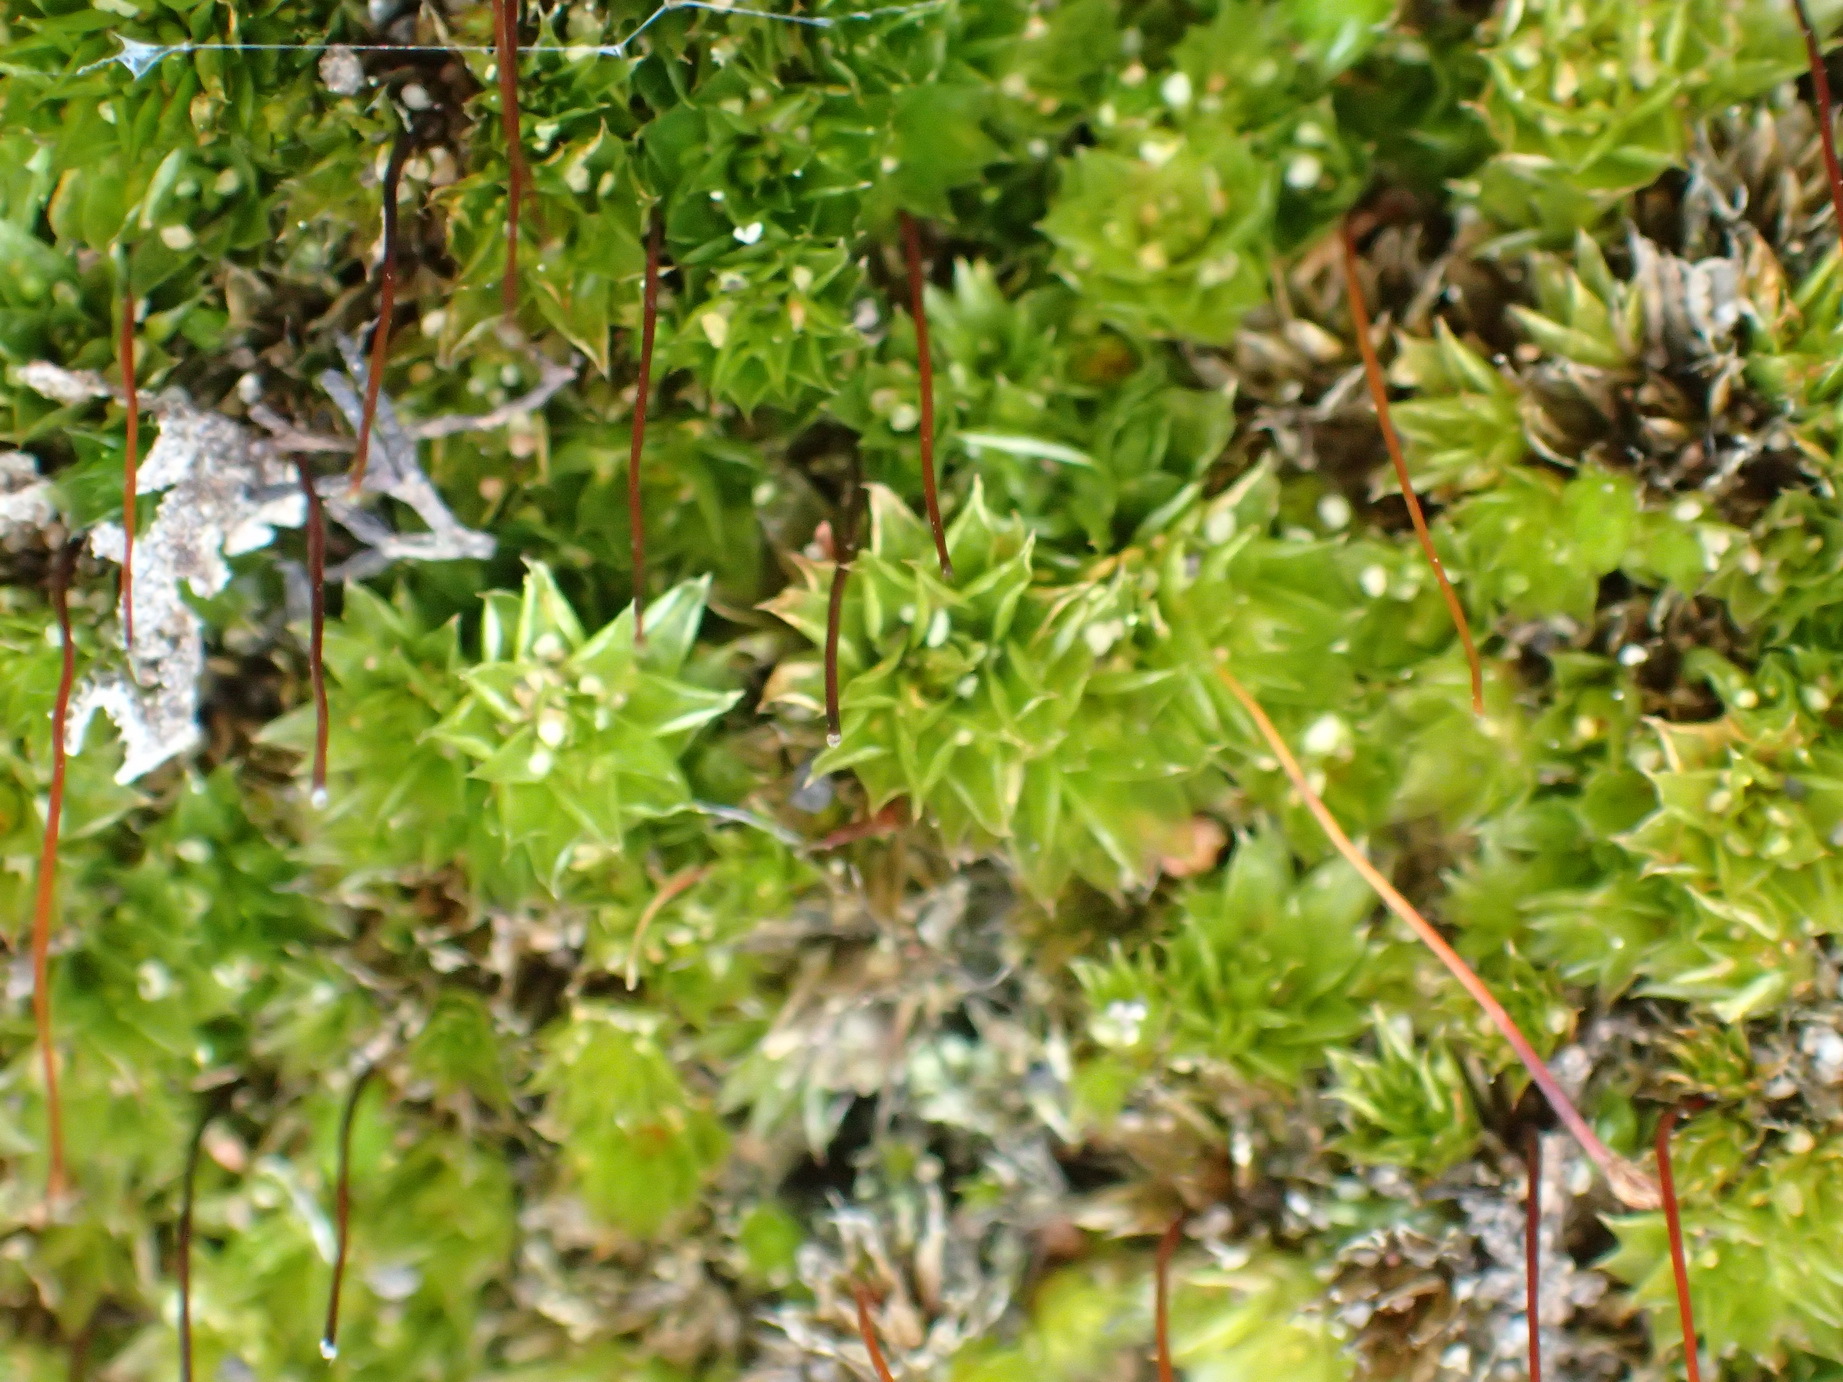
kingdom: Plantae
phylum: Bryophyta
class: Bryopsida
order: Bryales
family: Bryaceae
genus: Rosulabryum
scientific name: Rosulabryum canariense
